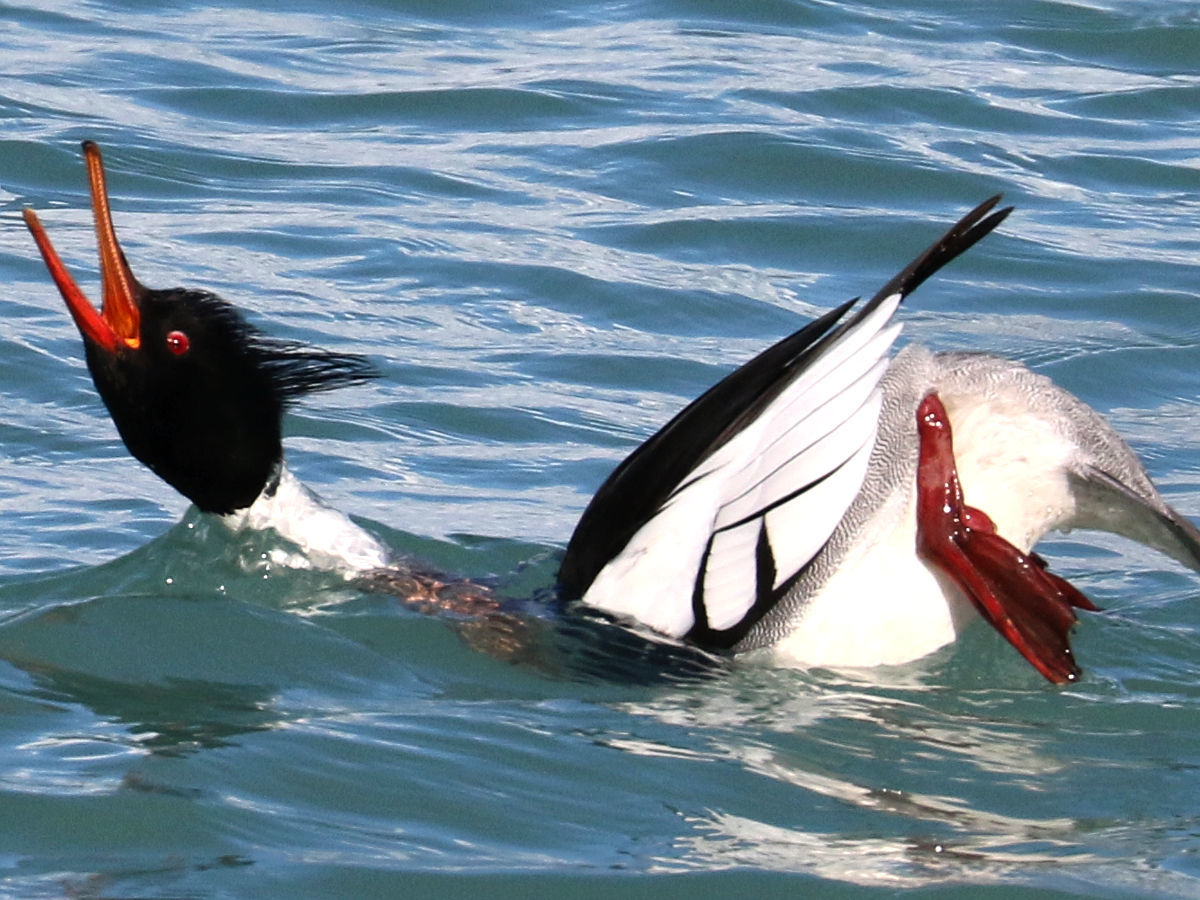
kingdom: Animalia
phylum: Chordata
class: Aves
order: Anseriformes
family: Anatidae
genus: Mergus
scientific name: Mergus serrator
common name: Red-breasted merganser
